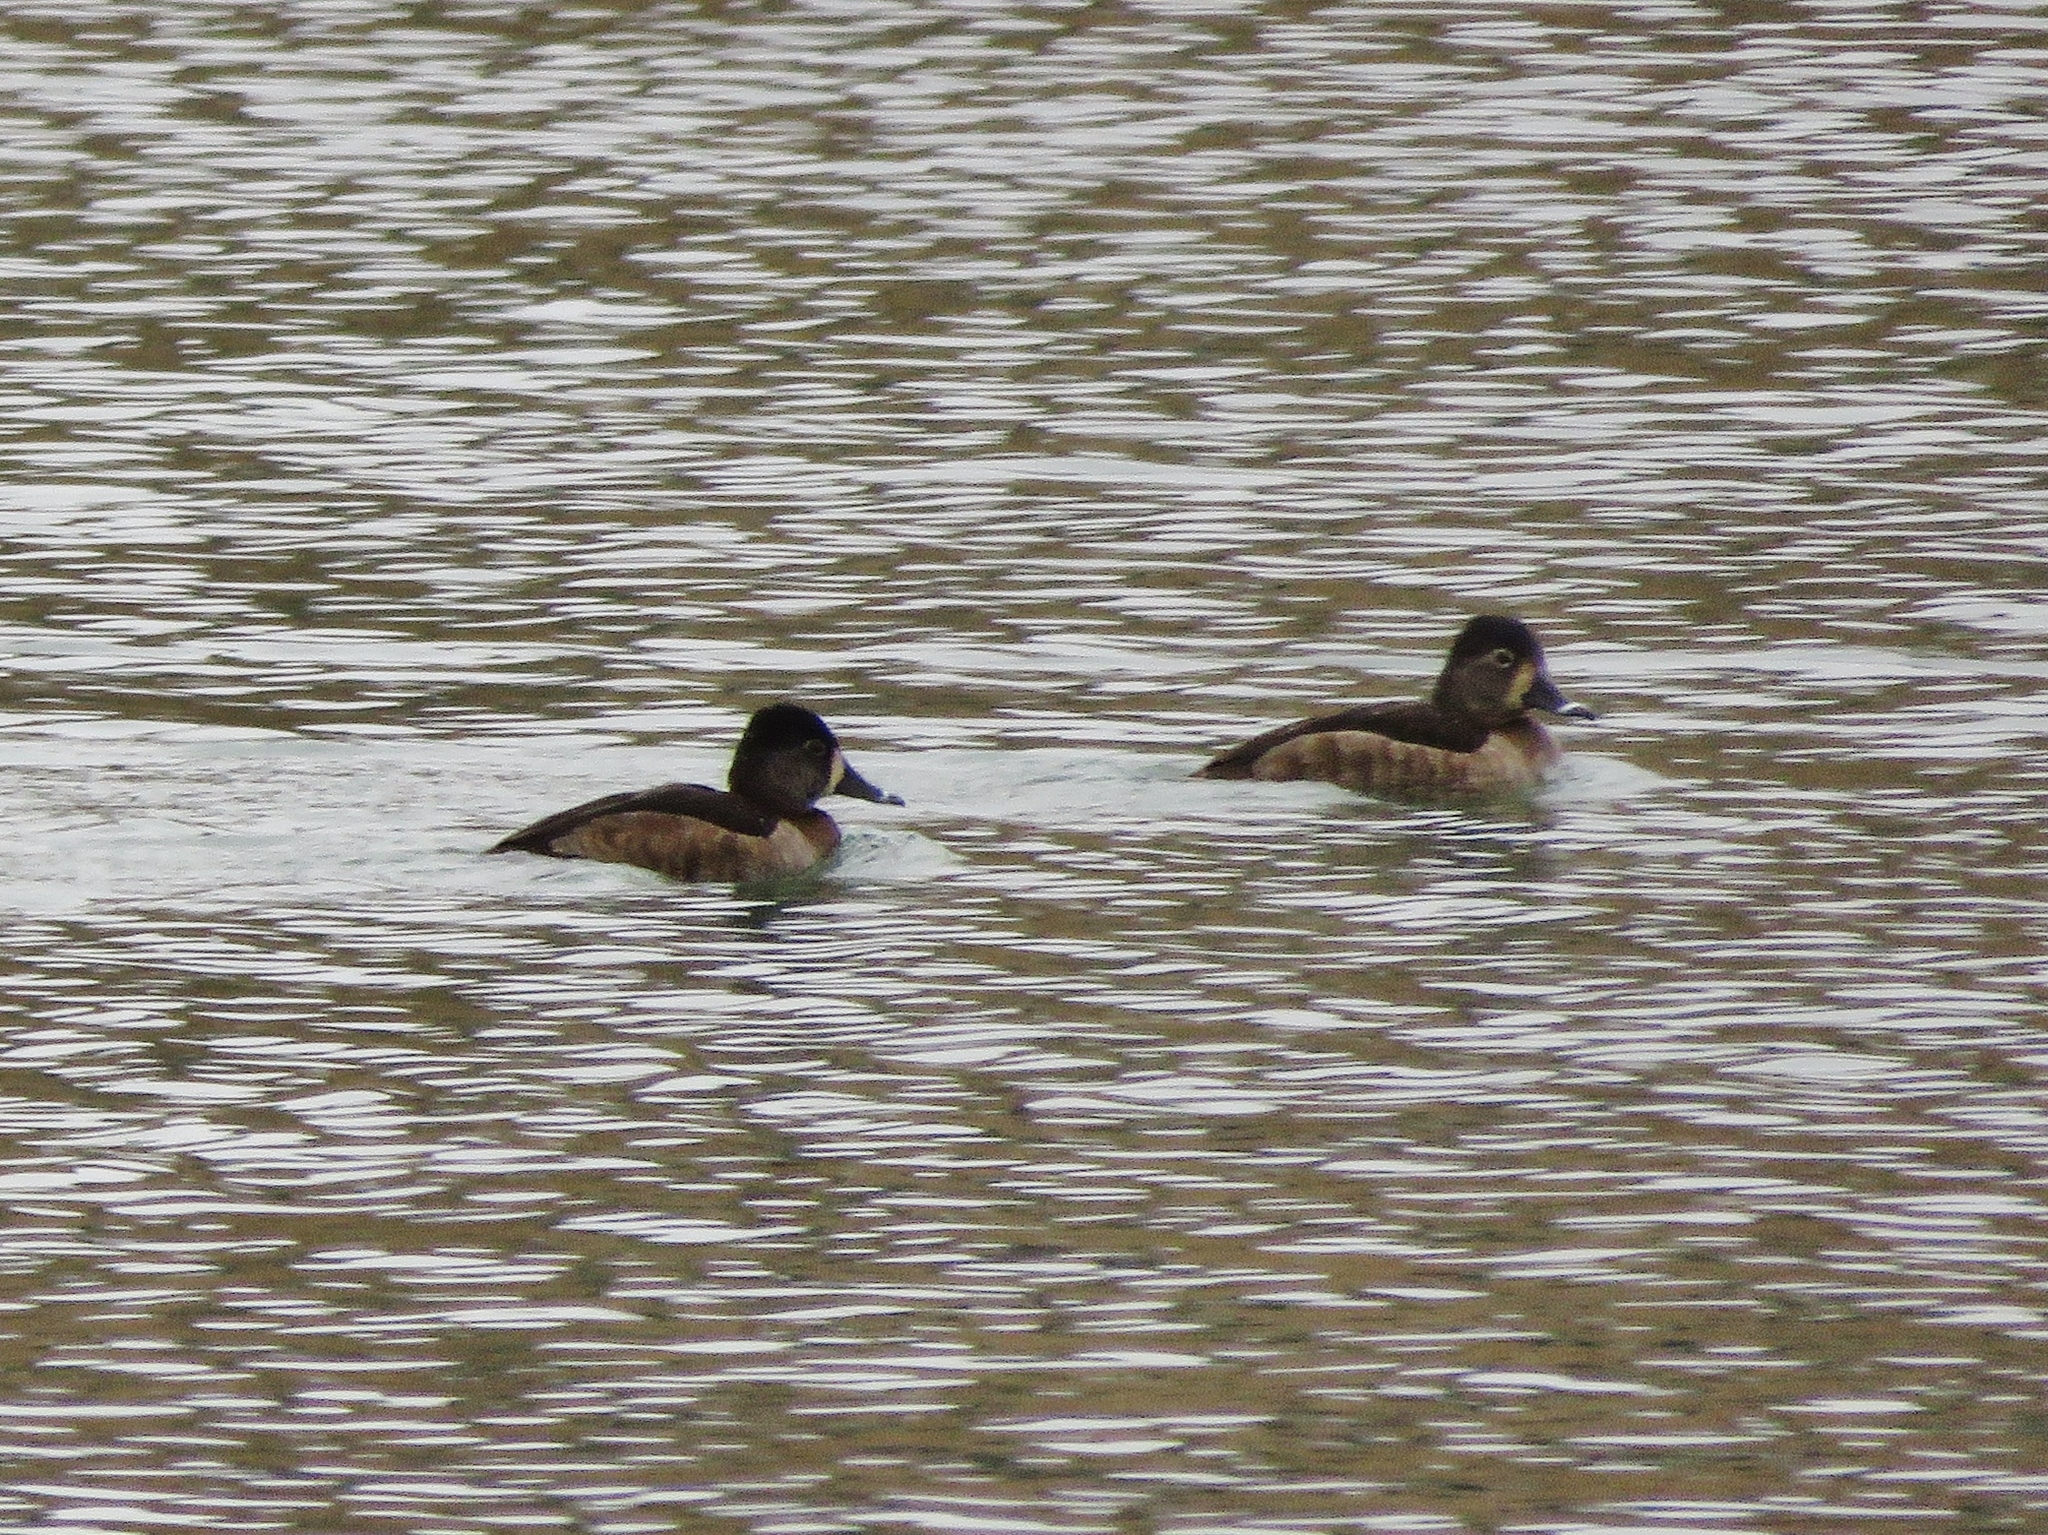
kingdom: Animalia
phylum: Chordata
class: Aves
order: Anseriformes
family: Anatidae
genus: Aythya
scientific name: Aythya collaris
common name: Ring-necked duck
